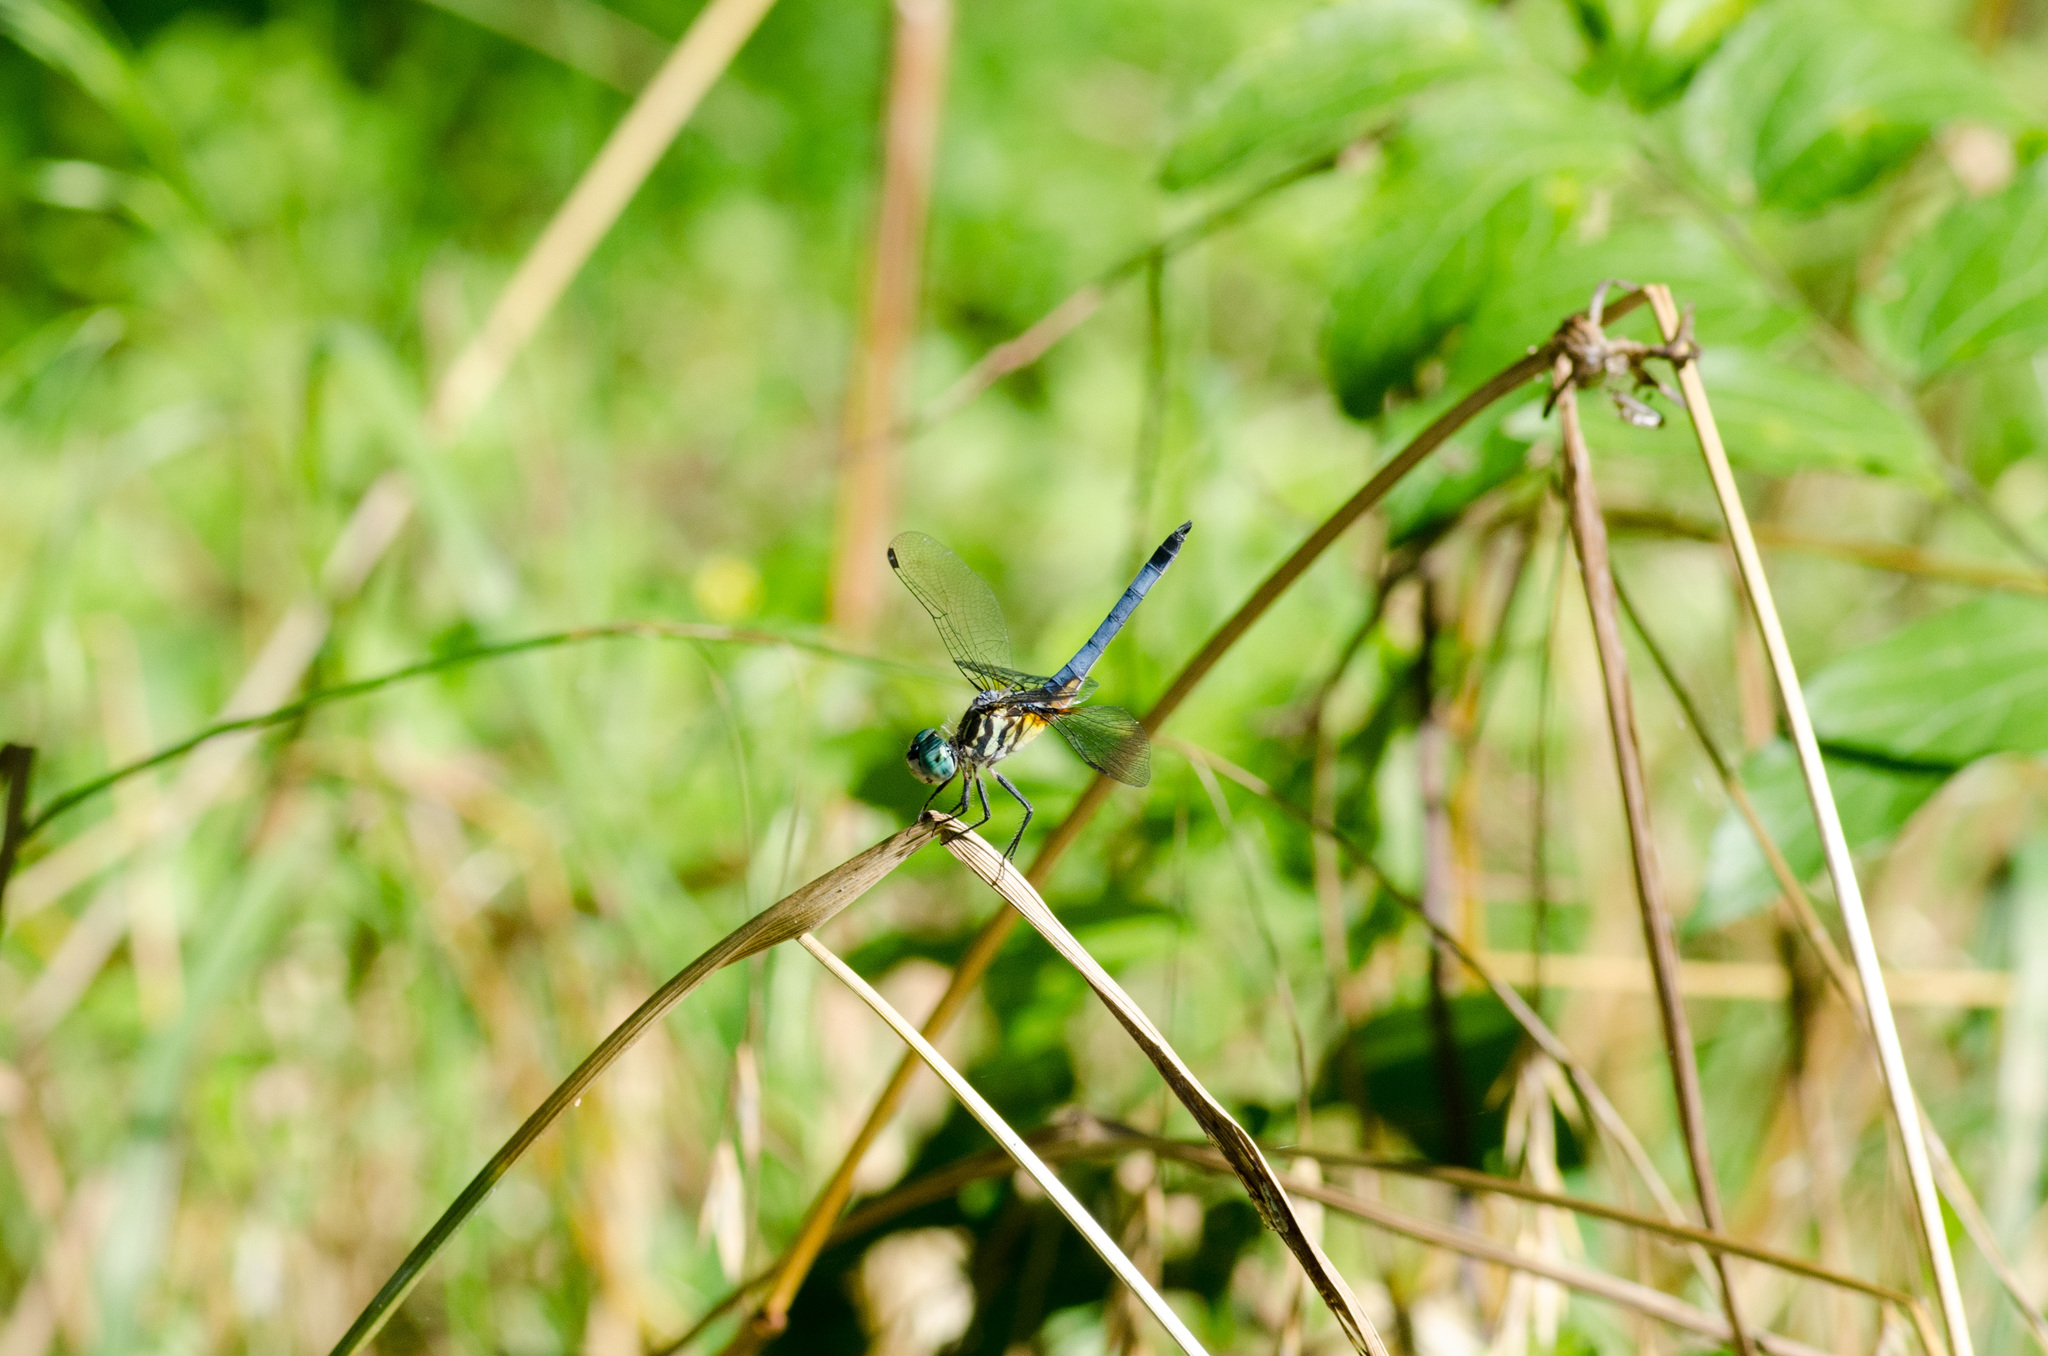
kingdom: Animalia
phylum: Arthropoda
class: Insecta
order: Odonata
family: Libellulidae
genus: Pachydiplax
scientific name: Pachydiplax longipennis
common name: Blue dasher
